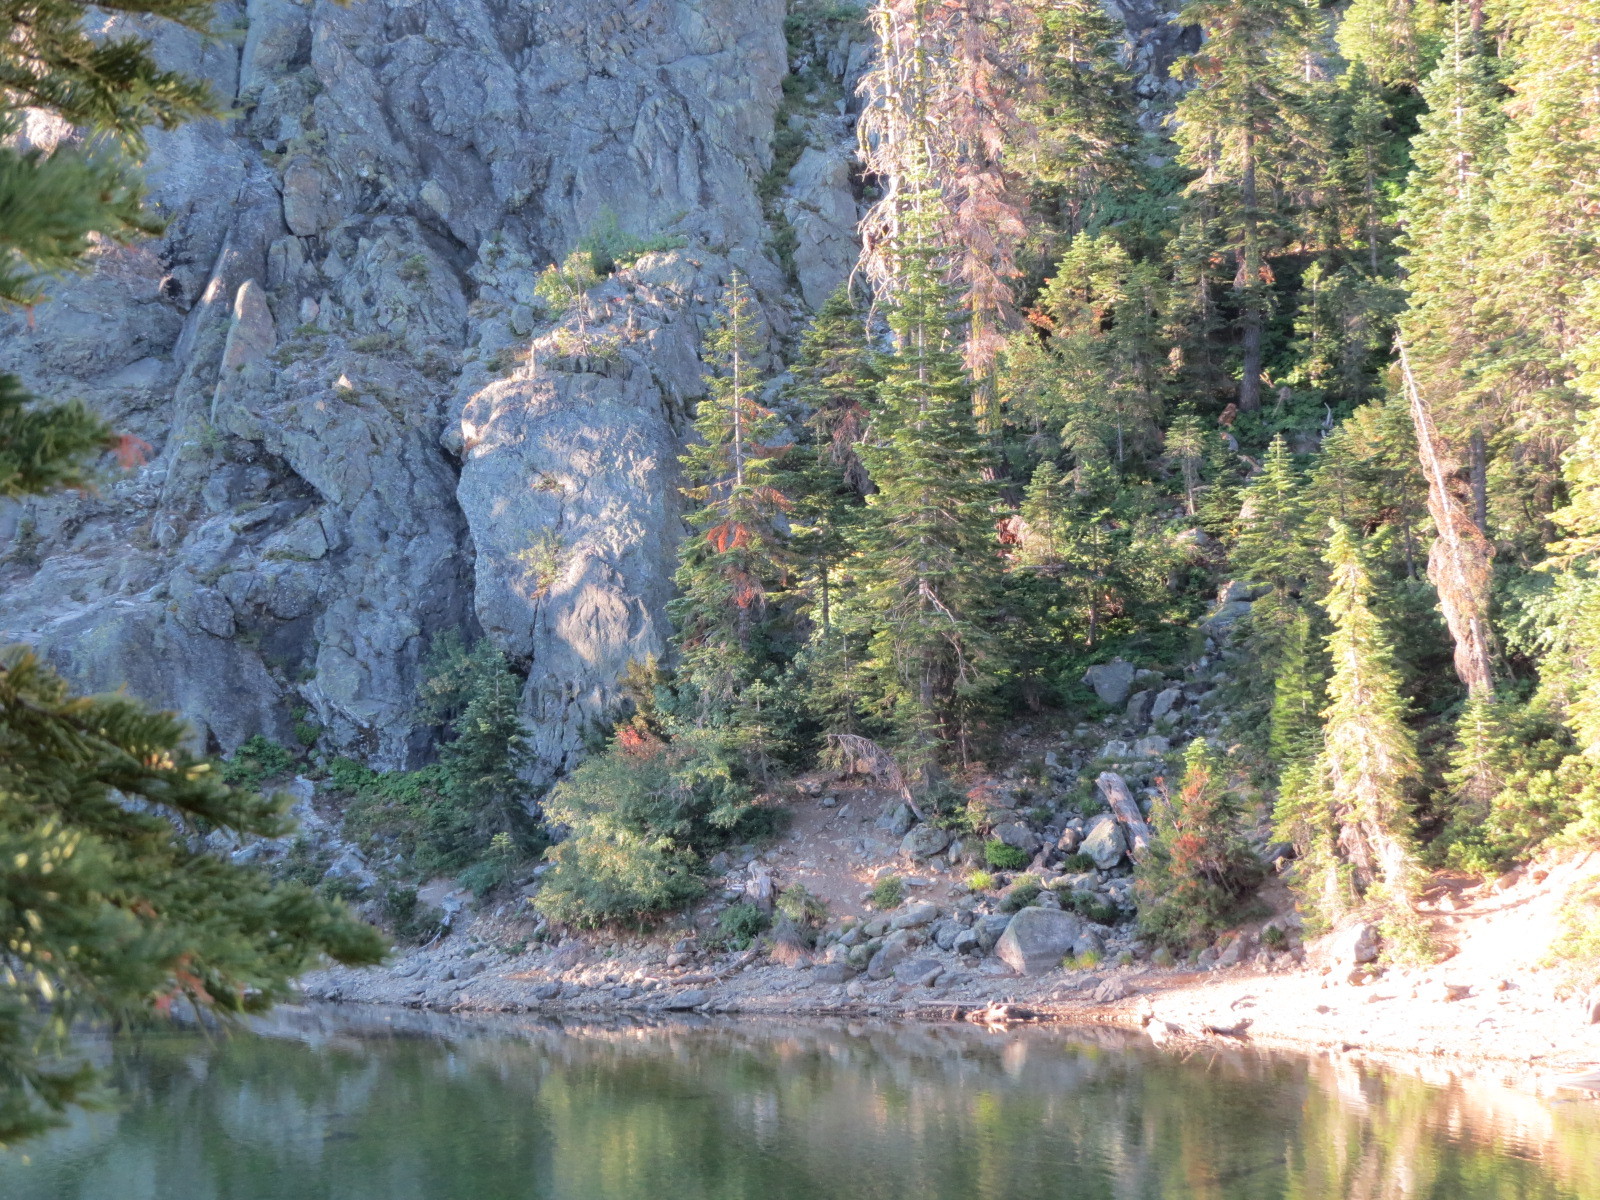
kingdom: Animalia
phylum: Chordata
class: Aves
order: Accipitriformes
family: Accipitridae
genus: Haliaeetus
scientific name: Haliaeetus leucocephalus
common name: Bald eagle
